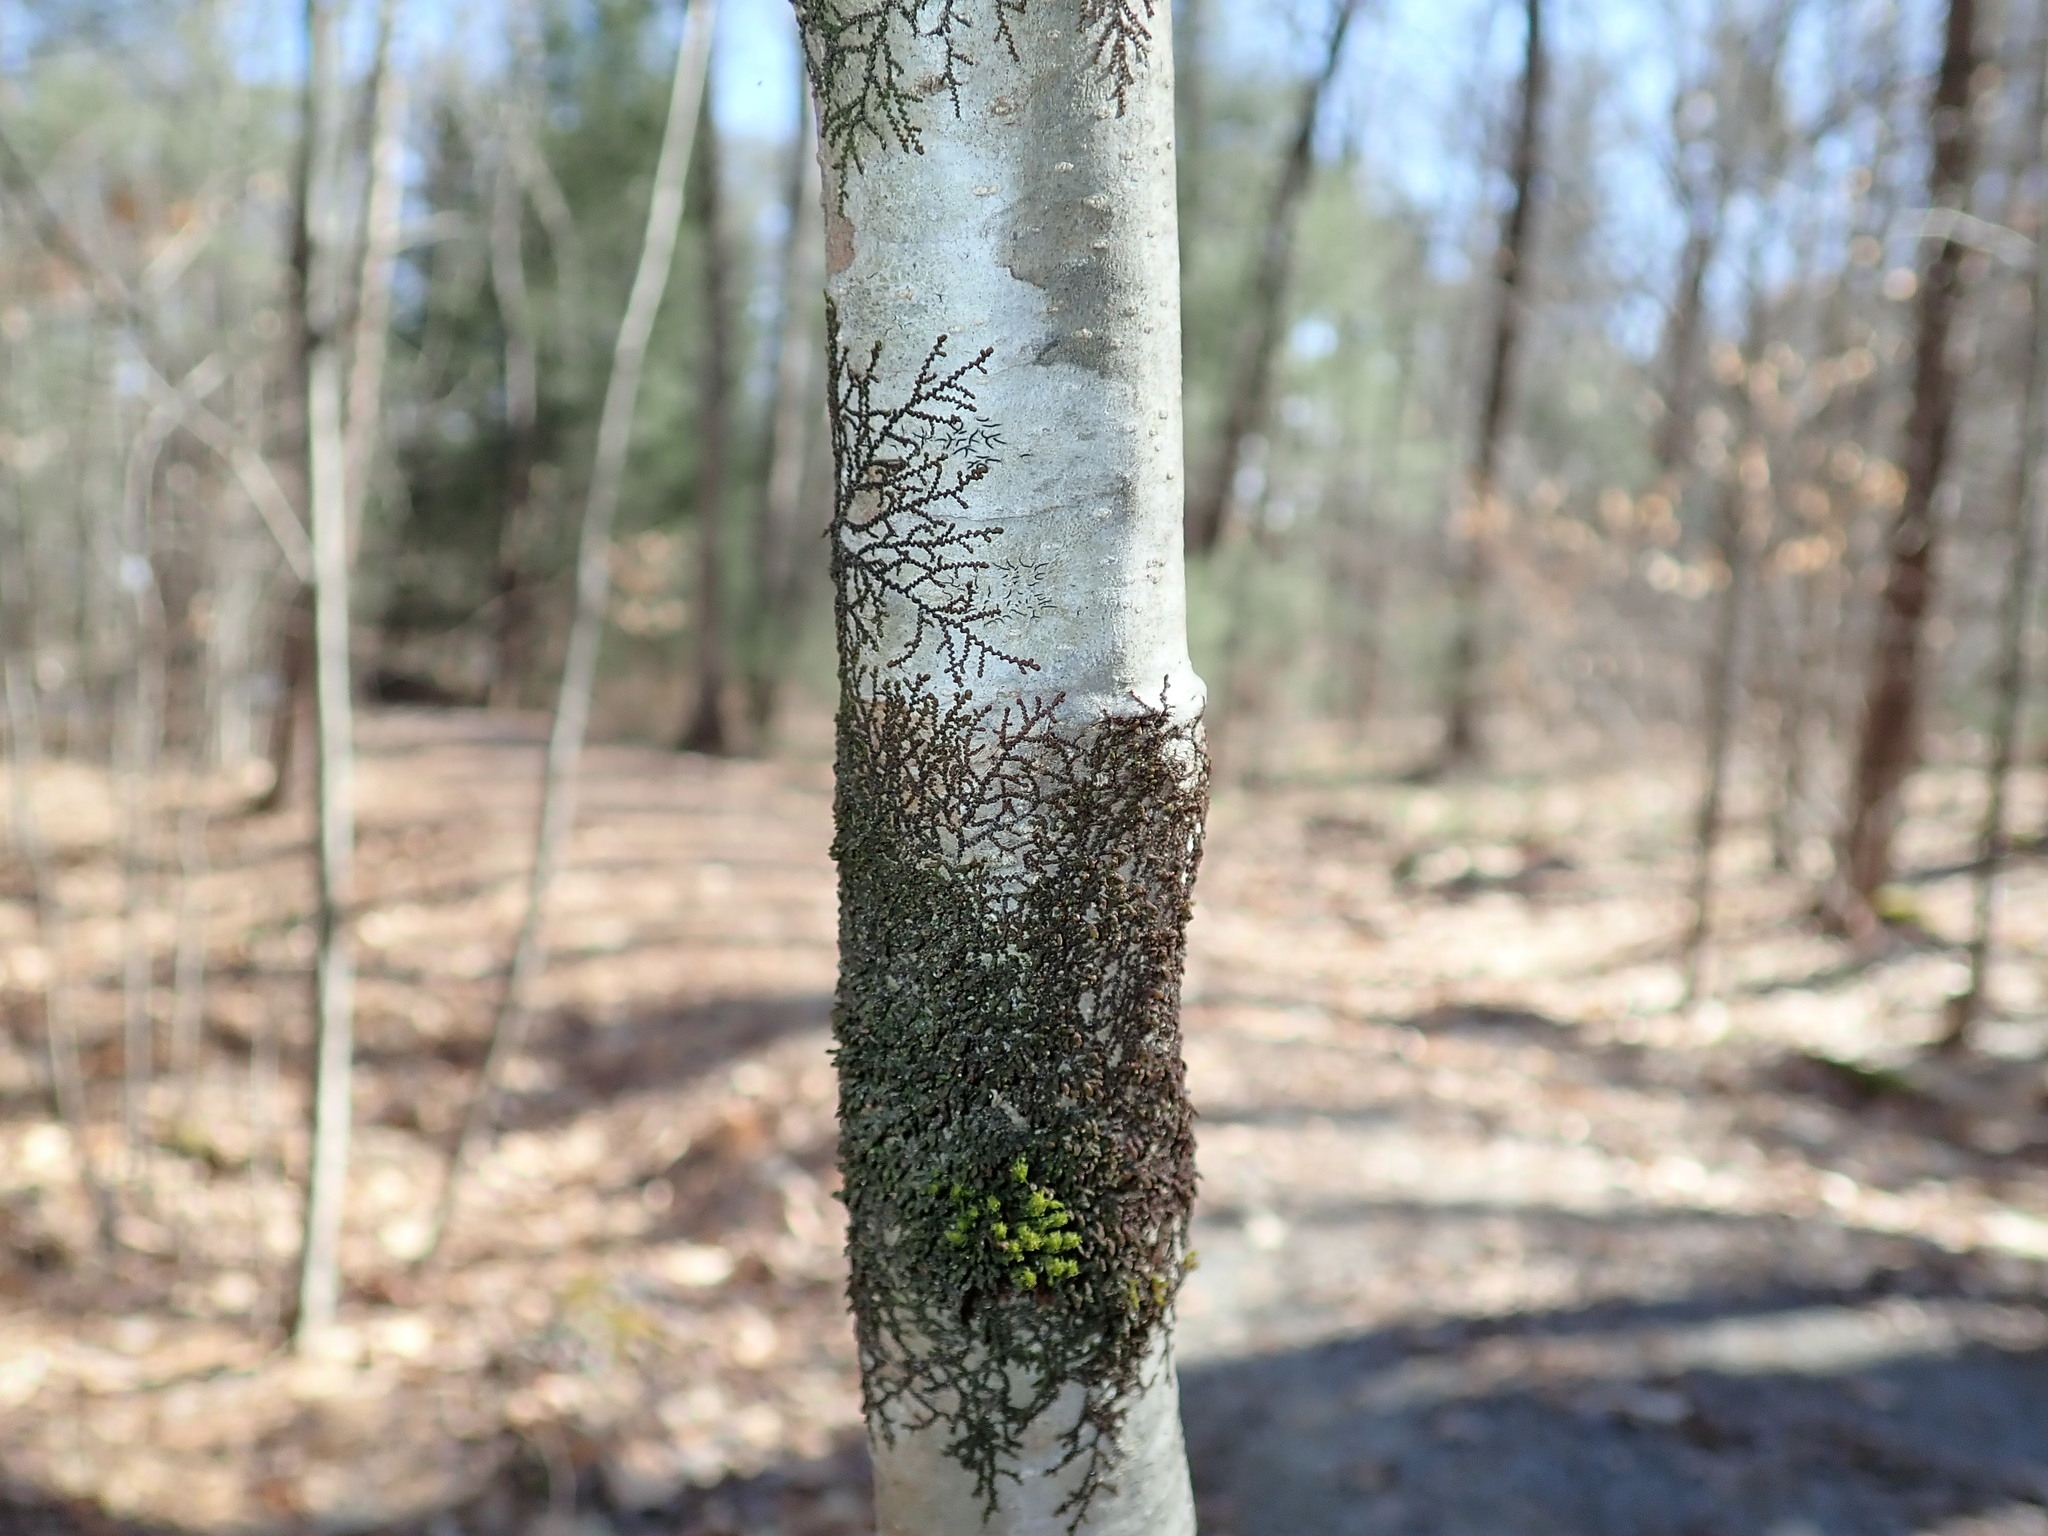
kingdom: Plantae
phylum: Marchantiophyta
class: Jungermanniopsida
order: Porellales
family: Frullaniaceae
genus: Frullania
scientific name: Frullania eboracensis
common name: New york scalewort
